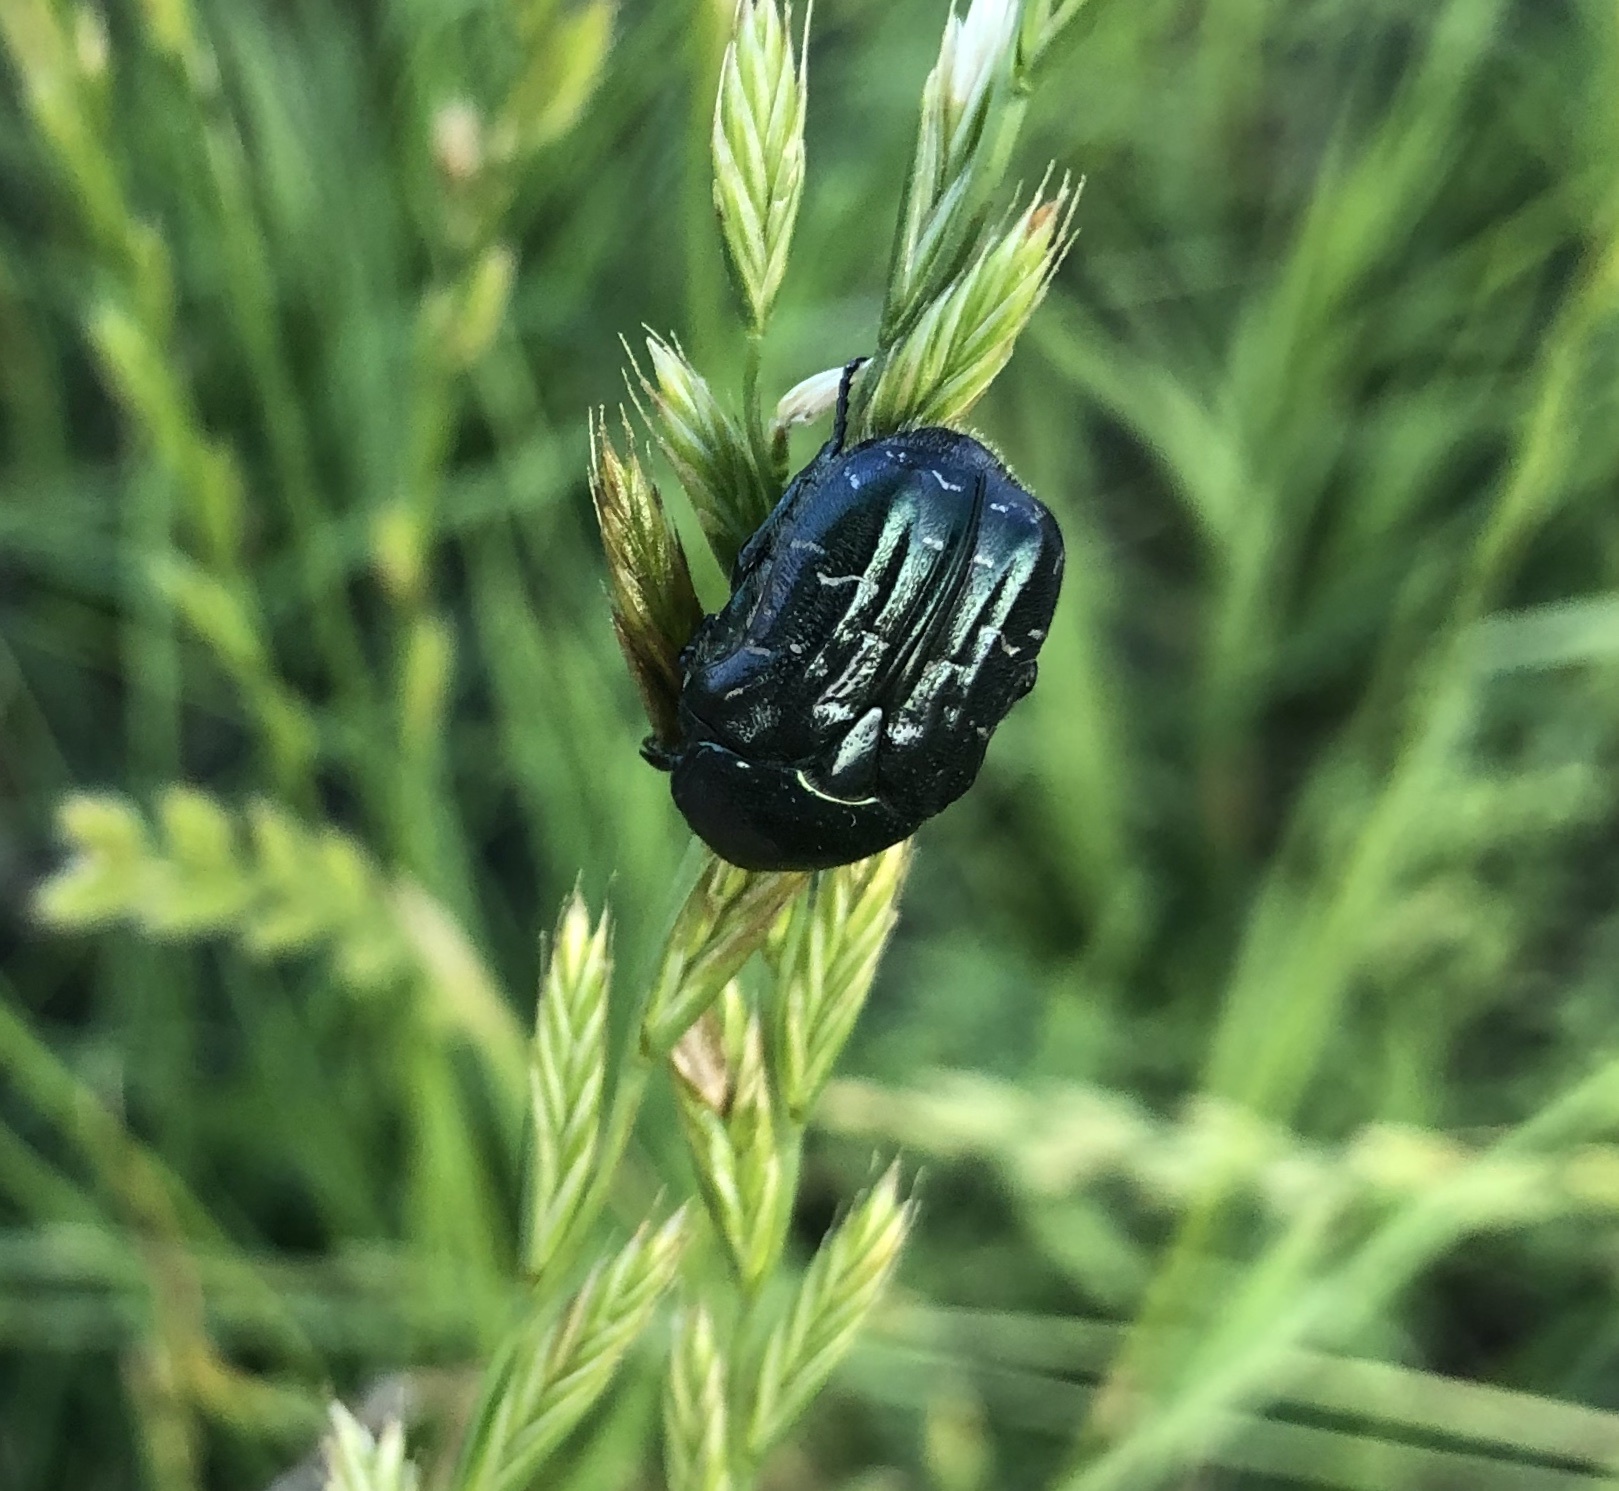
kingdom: Animalia
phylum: Arthropoda
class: Insecta
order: Coleoptera
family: Scarabaeidae
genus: Euphoria
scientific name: Euphoria sepulcralis
